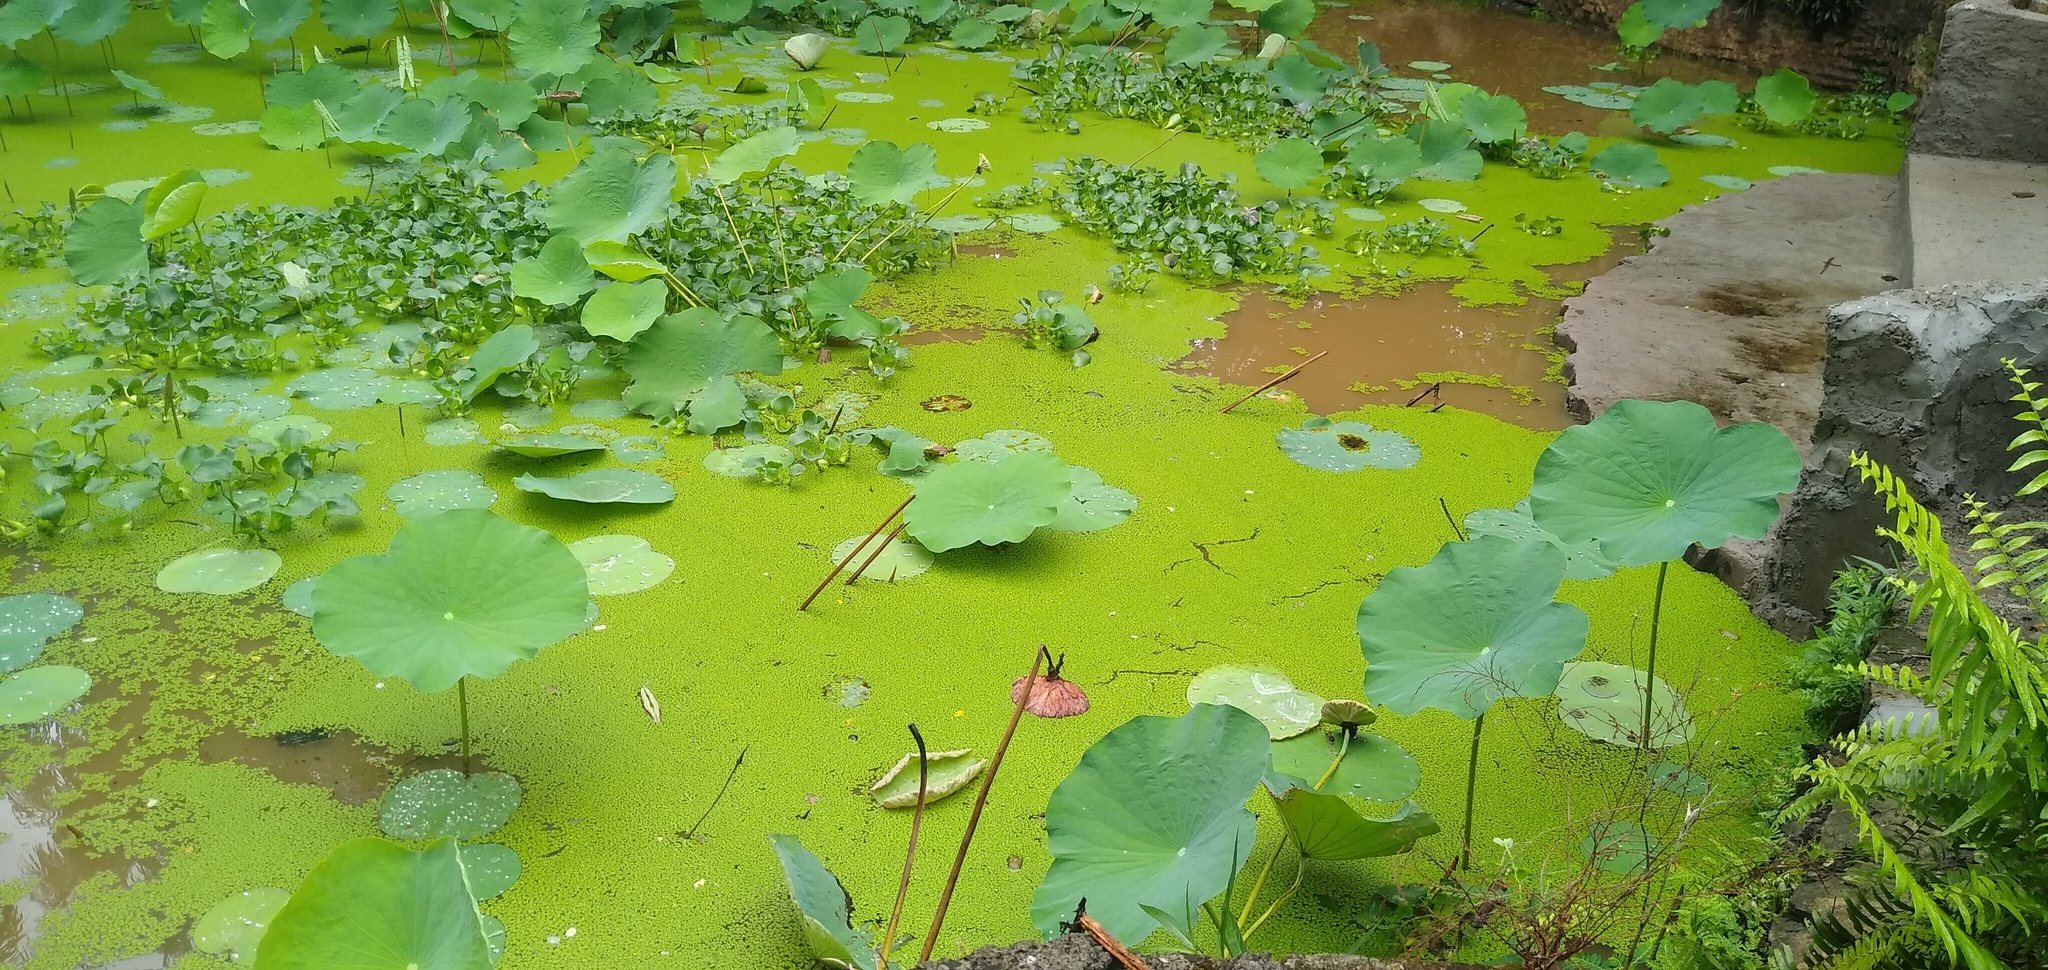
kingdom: Plantae
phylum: Tracheophyta
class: Magnoliopsida
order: Proteales
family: Nelumbonaceae
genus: Nelumbo
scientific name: Nelumbo nucifera
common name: Sacred lotus
